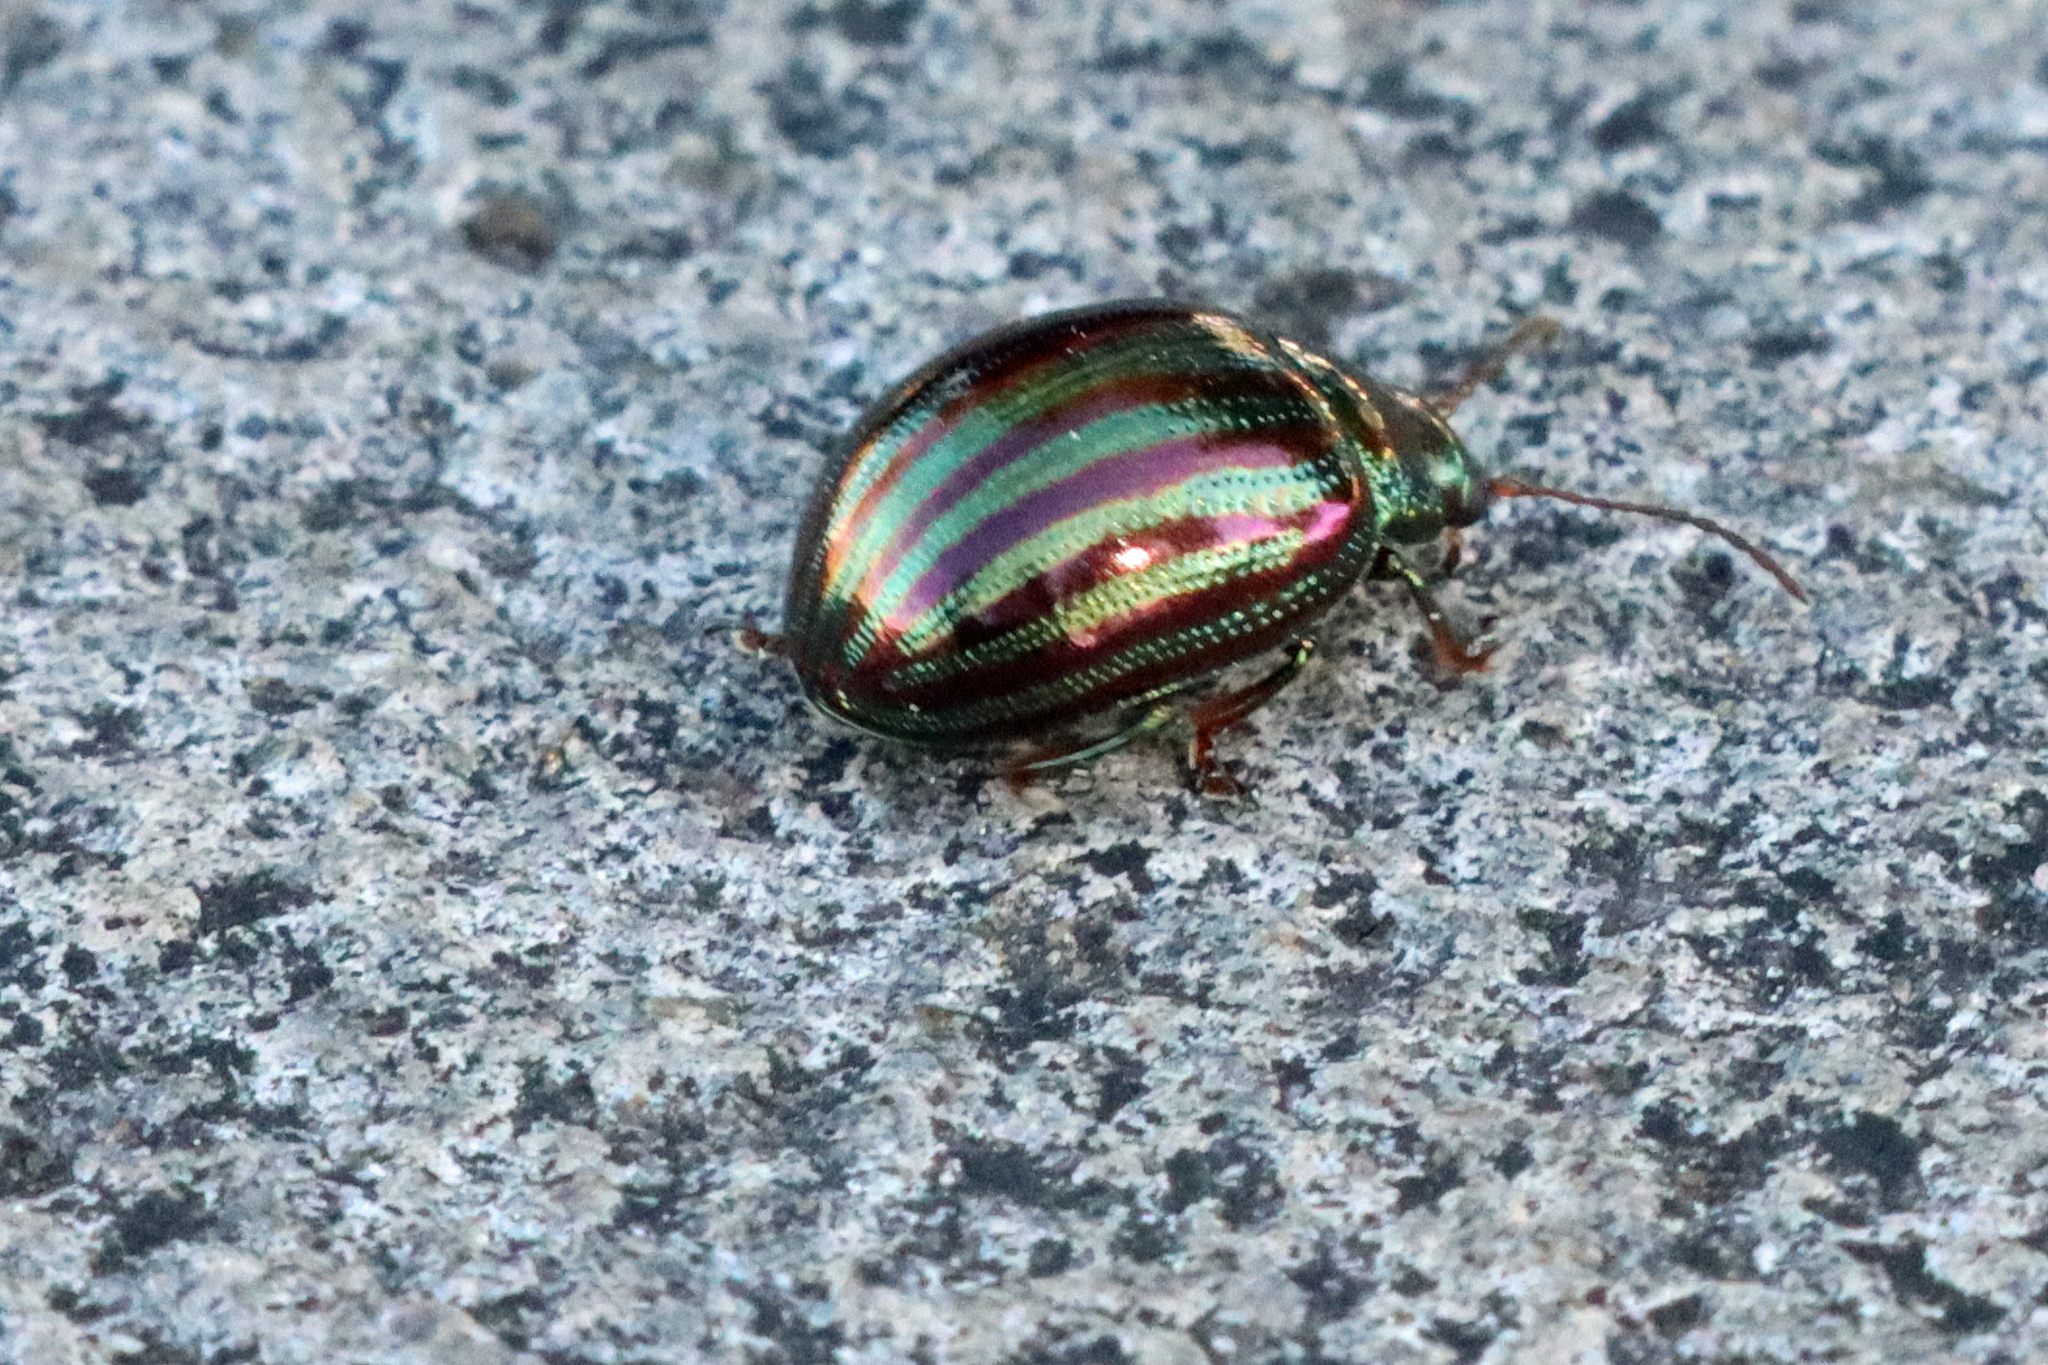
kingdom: Animalia
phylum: Arthropoda
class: Insecta
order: Coleoptera
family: Chrysomelidae
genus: Chrysolina
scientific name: Chrysolina americana
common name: Rosemary beetle
